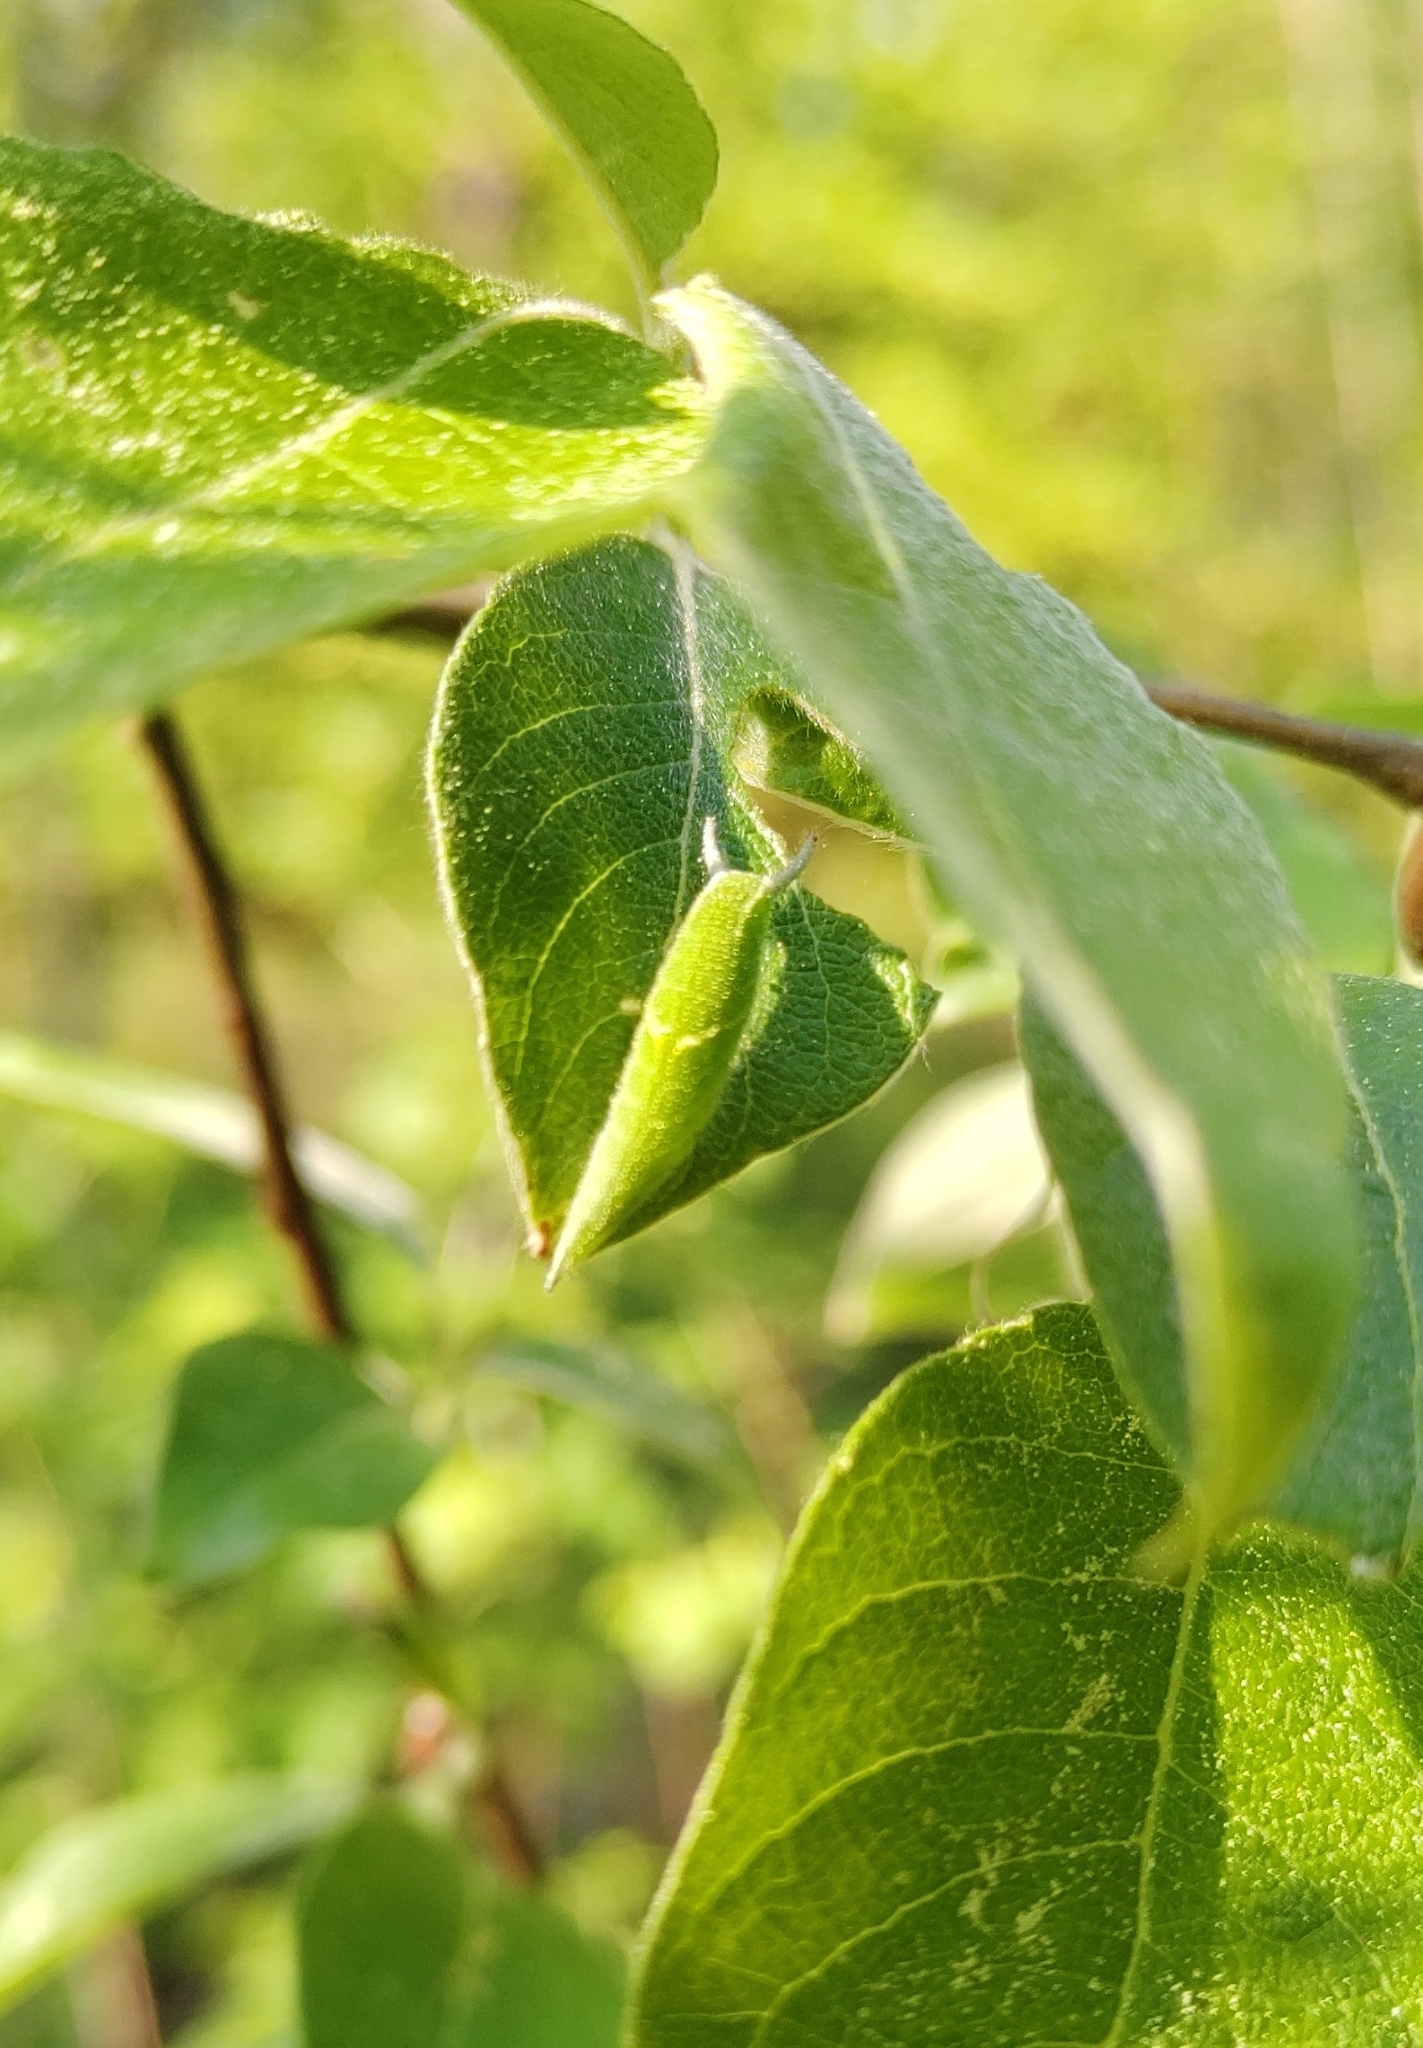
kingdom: Animalia
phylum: Arthropoda
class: Insecta
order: Lepidoptera
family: Nymphalidae
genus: Apatura
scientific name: Apatura iris
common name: Purple emperor
